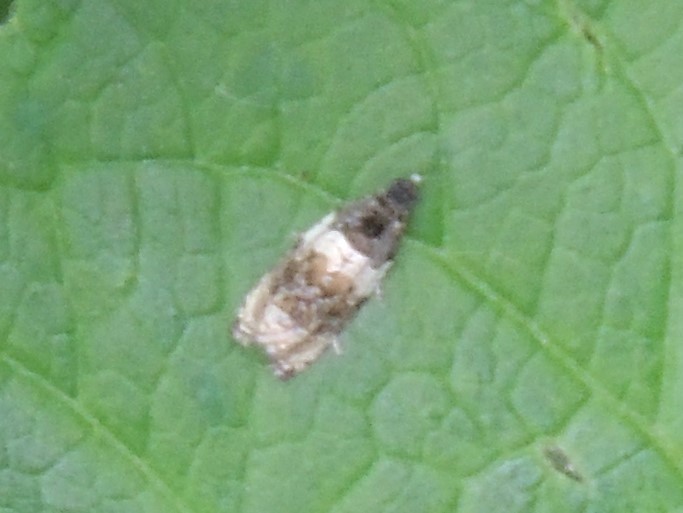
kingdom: Animalia
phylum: Arthropoda
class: Insecta
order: Lepidoptera
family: Tortricidae
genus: Olethreutes
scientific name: Olethreutes fasciatana
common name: Banded olethreutes moth
